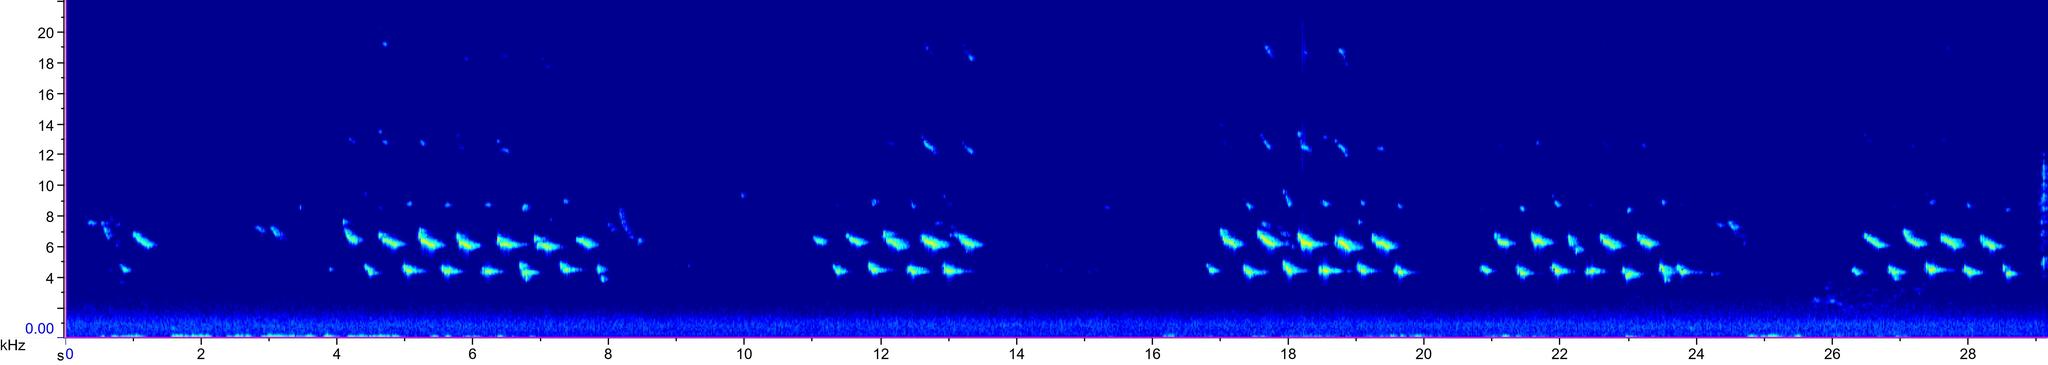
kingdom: Animalia
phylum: Chordata
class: Aves
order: Passeriformes
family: Paridae
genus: Parus
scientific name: Parus major
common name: Great tit
